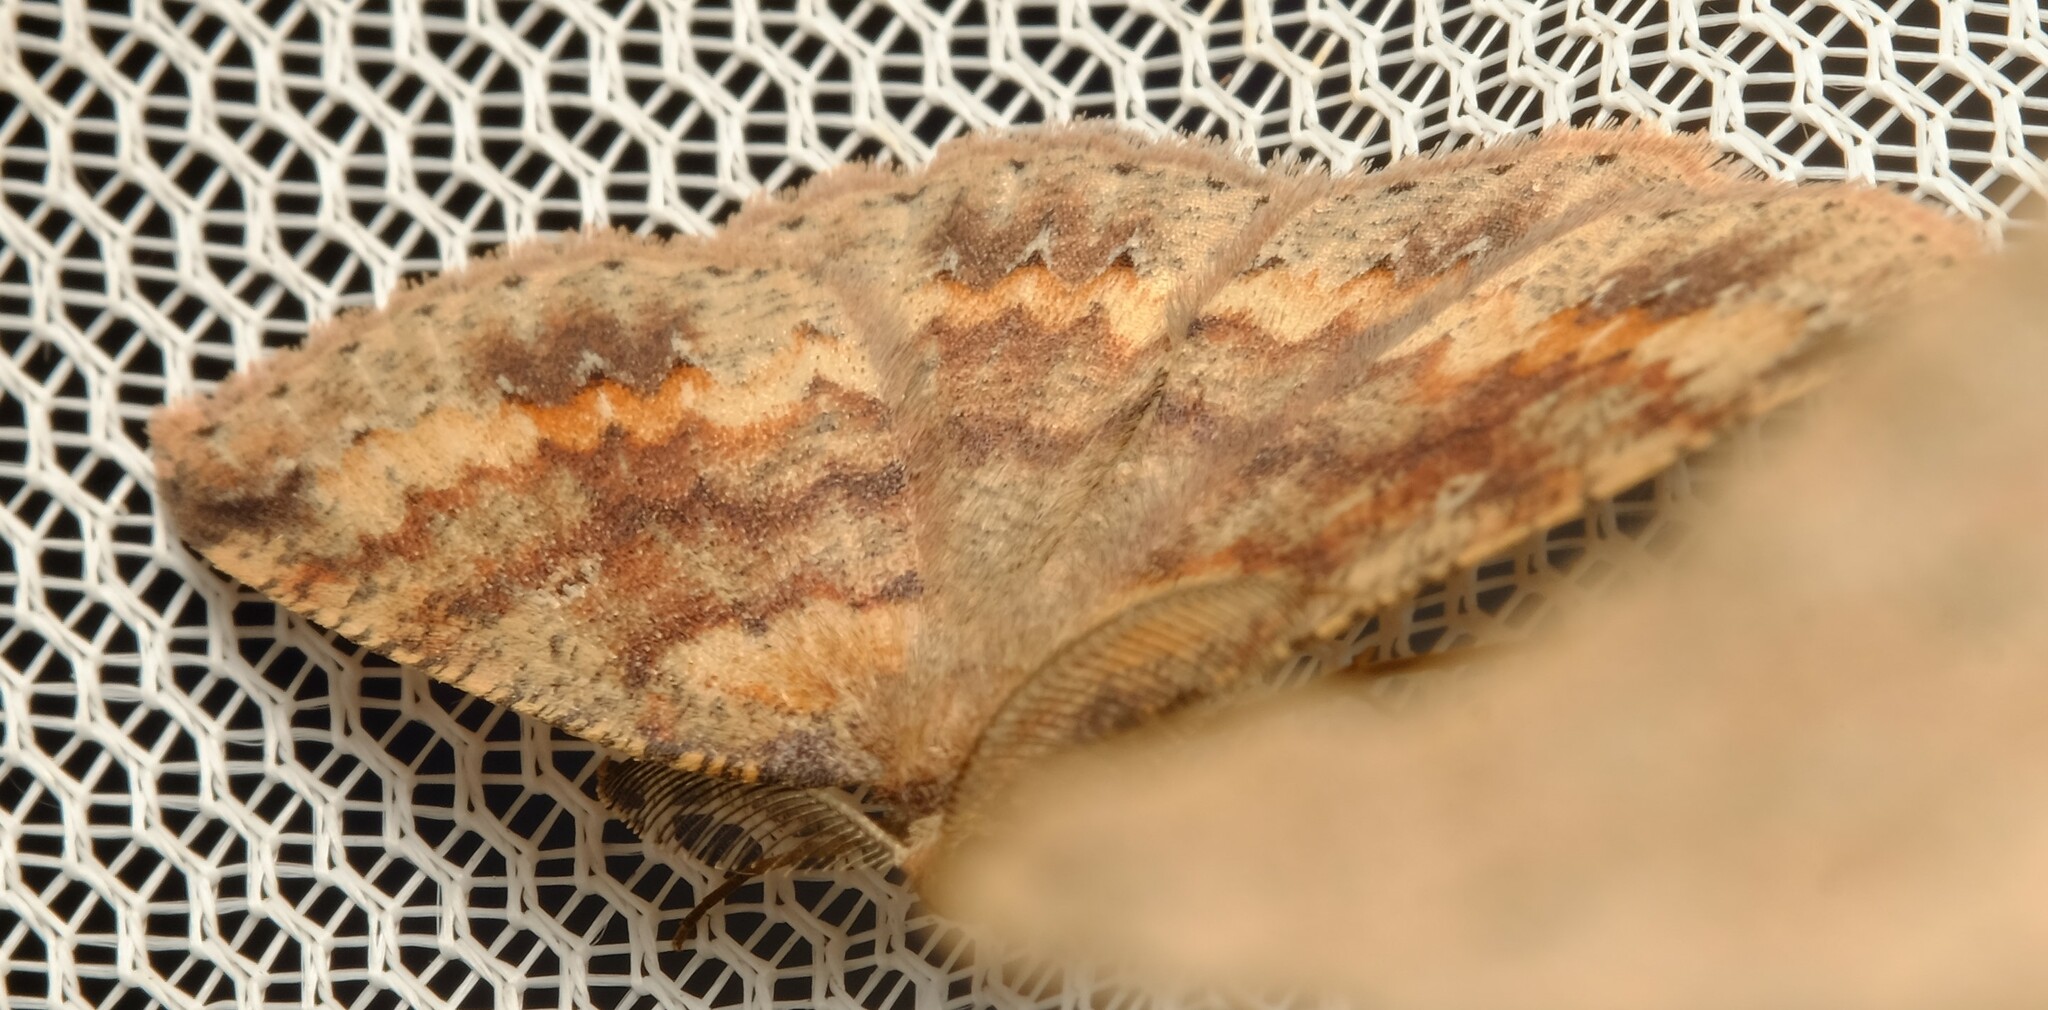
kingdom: Animalia
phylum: Arthropoda
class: Insecta
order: Lepidoptera
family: Geometridae
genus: Casbia
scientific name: Casbia melanops
